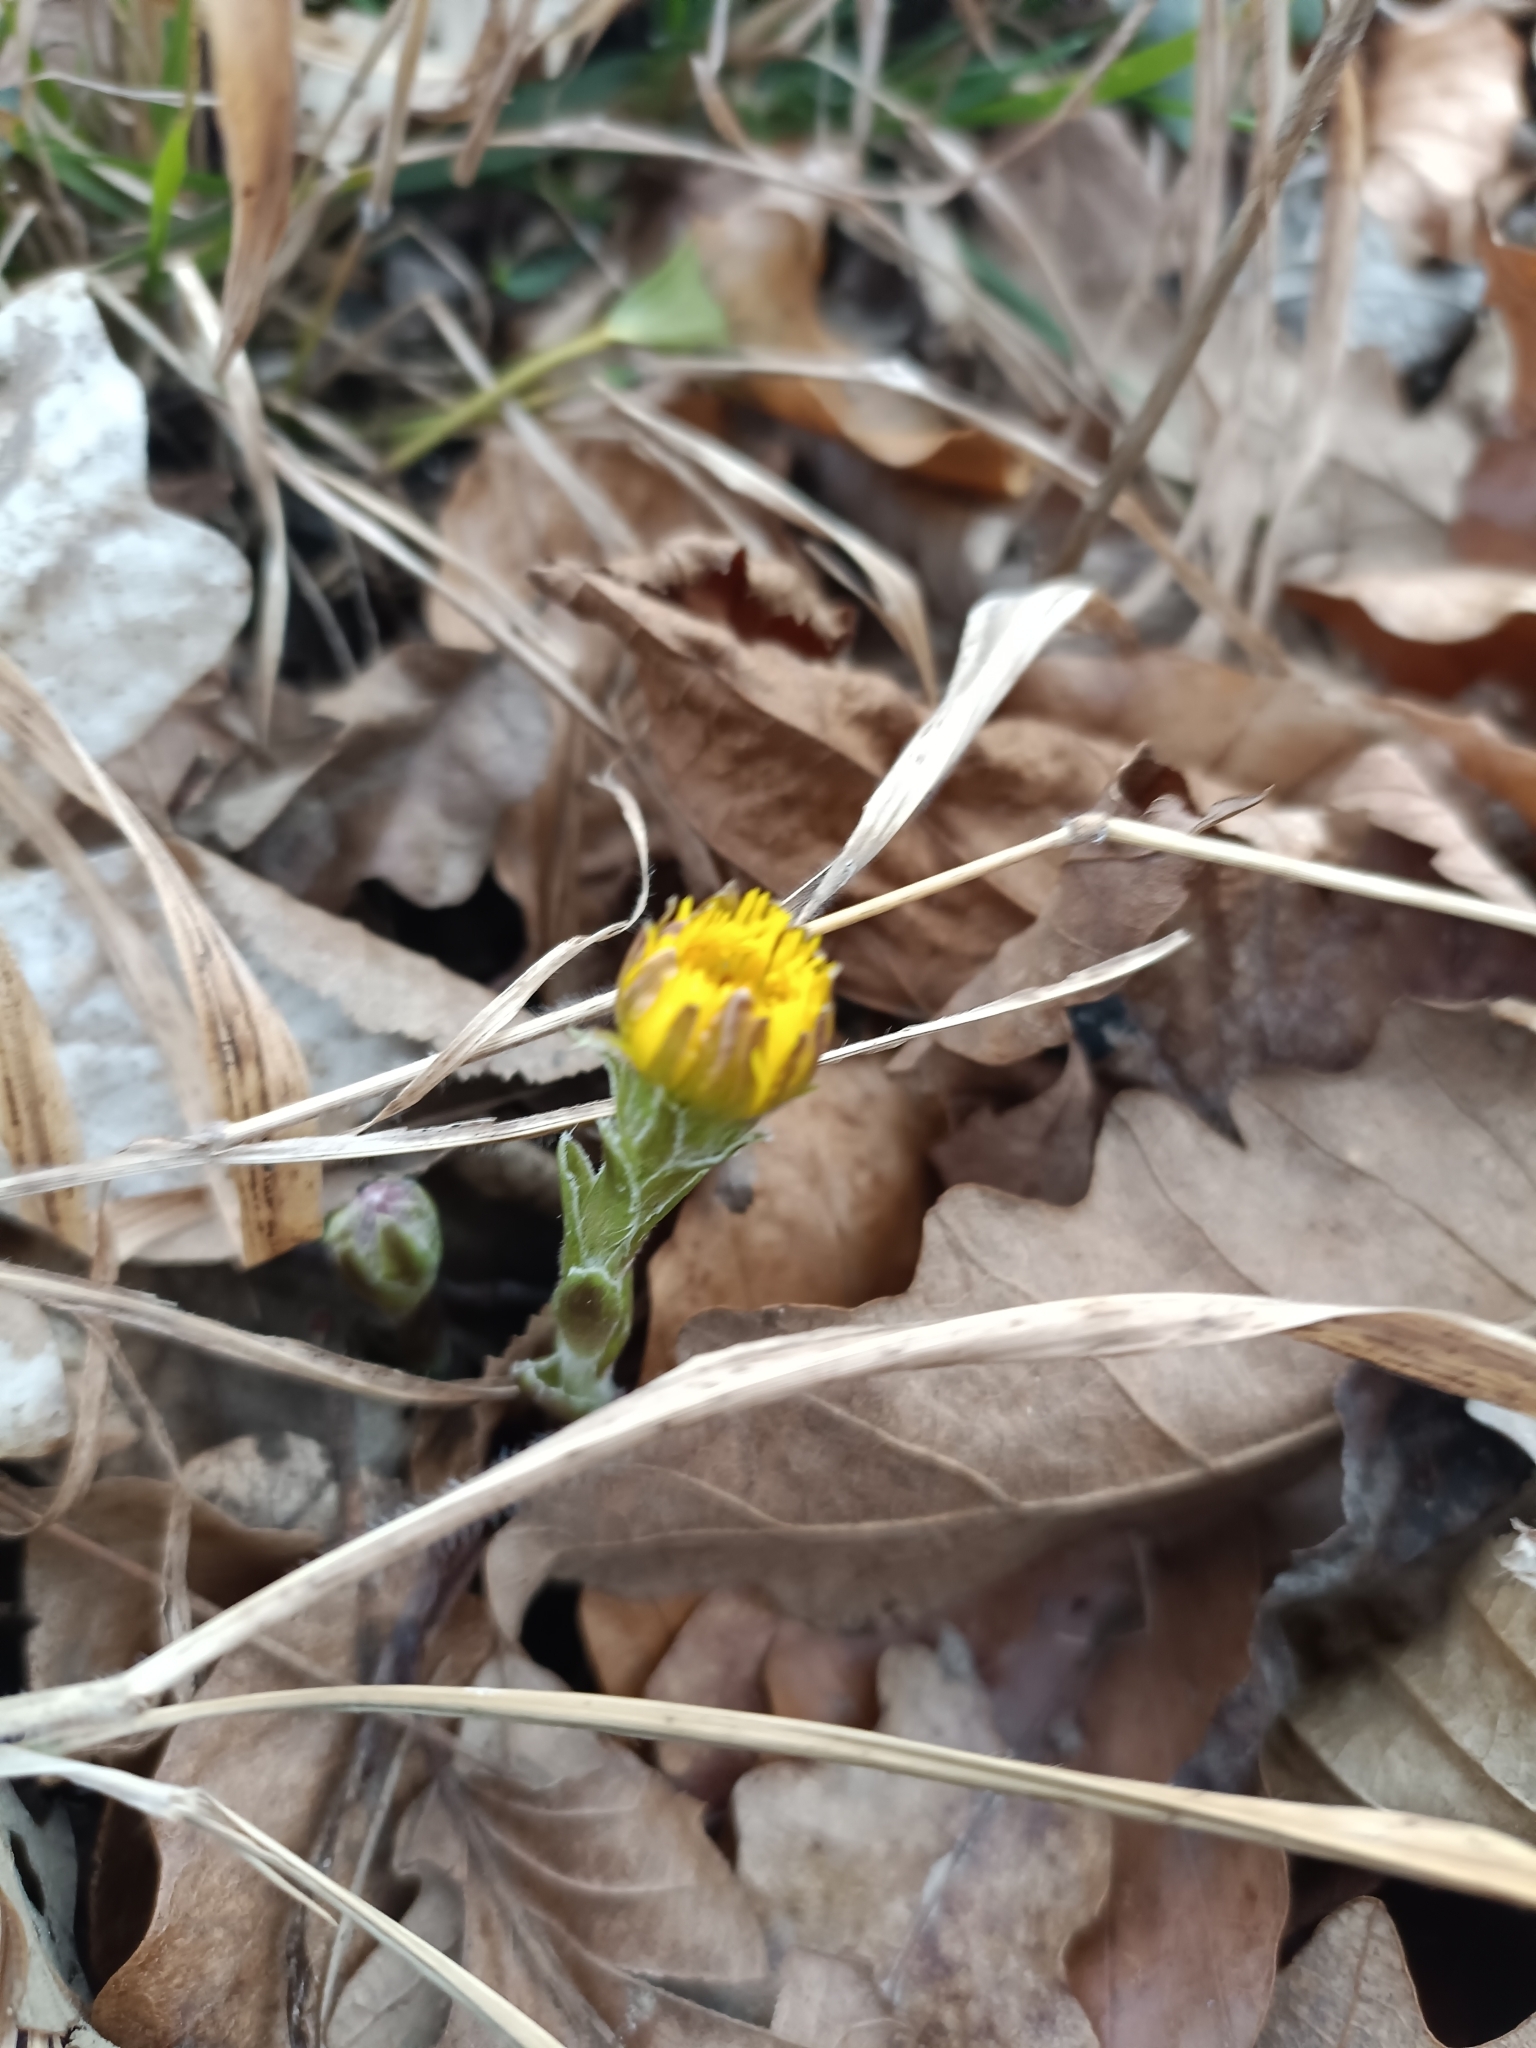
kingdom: Plantae
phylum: Tracheophyta
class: Magnoliopsida
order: Asterales
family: Asteraceae
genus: Tussilago
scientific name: Tussilago farfara
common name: Coltsfoot
